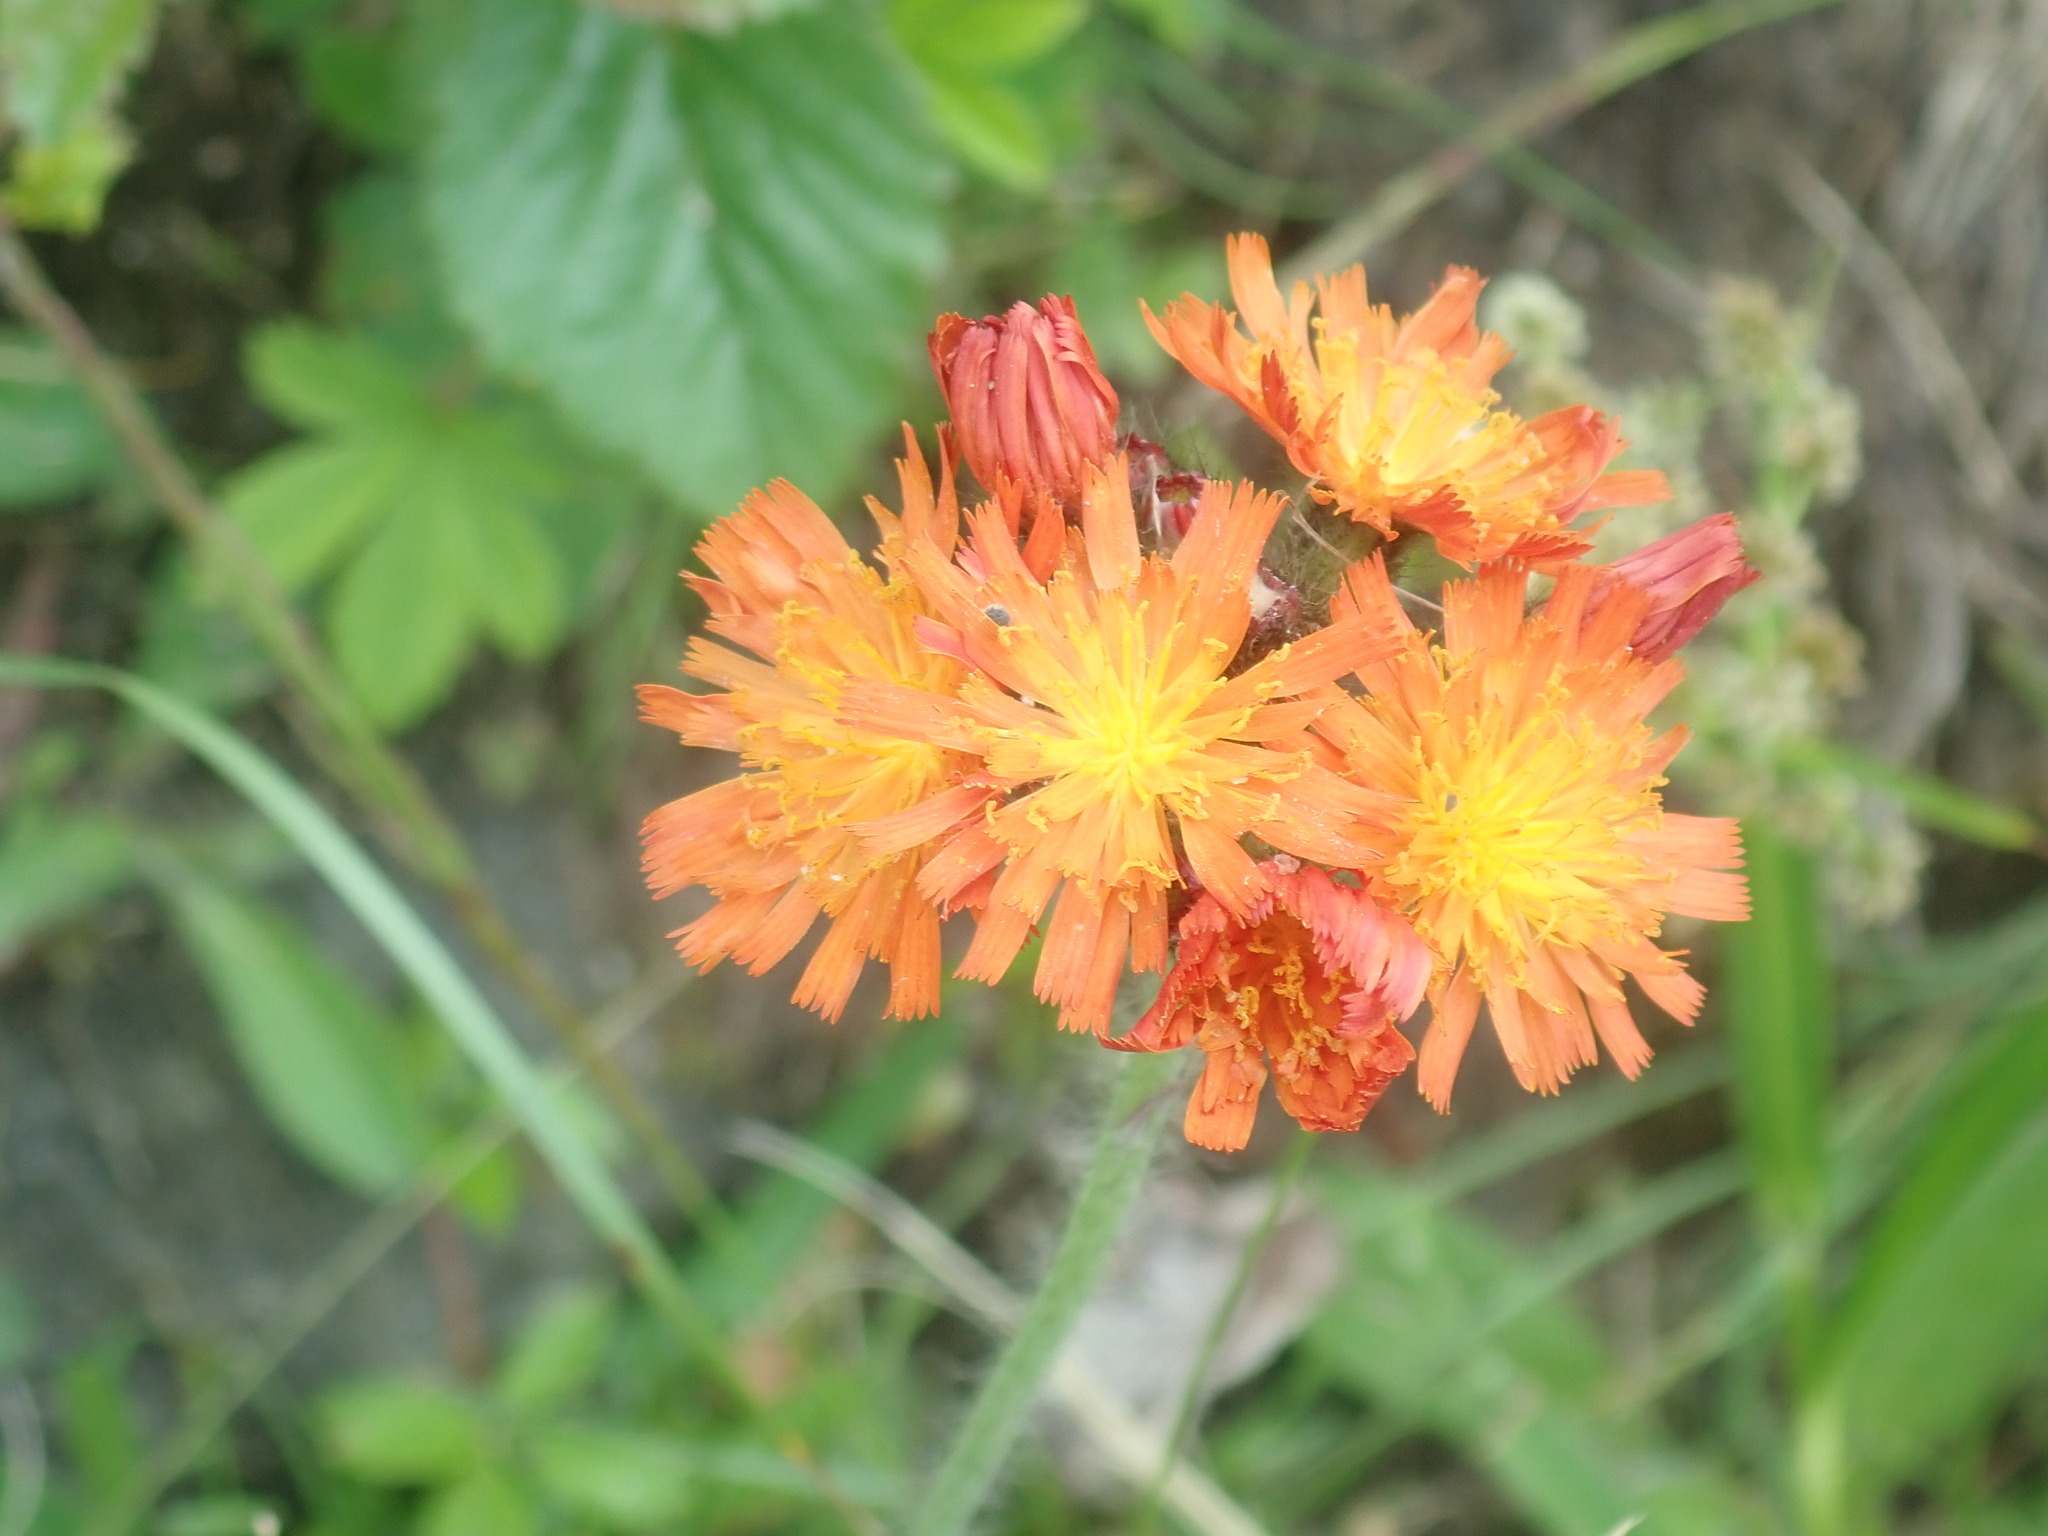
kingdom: Plantae
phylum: Tracheophyta
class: Magnoliopsida
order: Asterales
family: Asteraceae
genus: Pilosella
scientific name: Pilosella aurantiaca
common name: Fox-and-cubs
